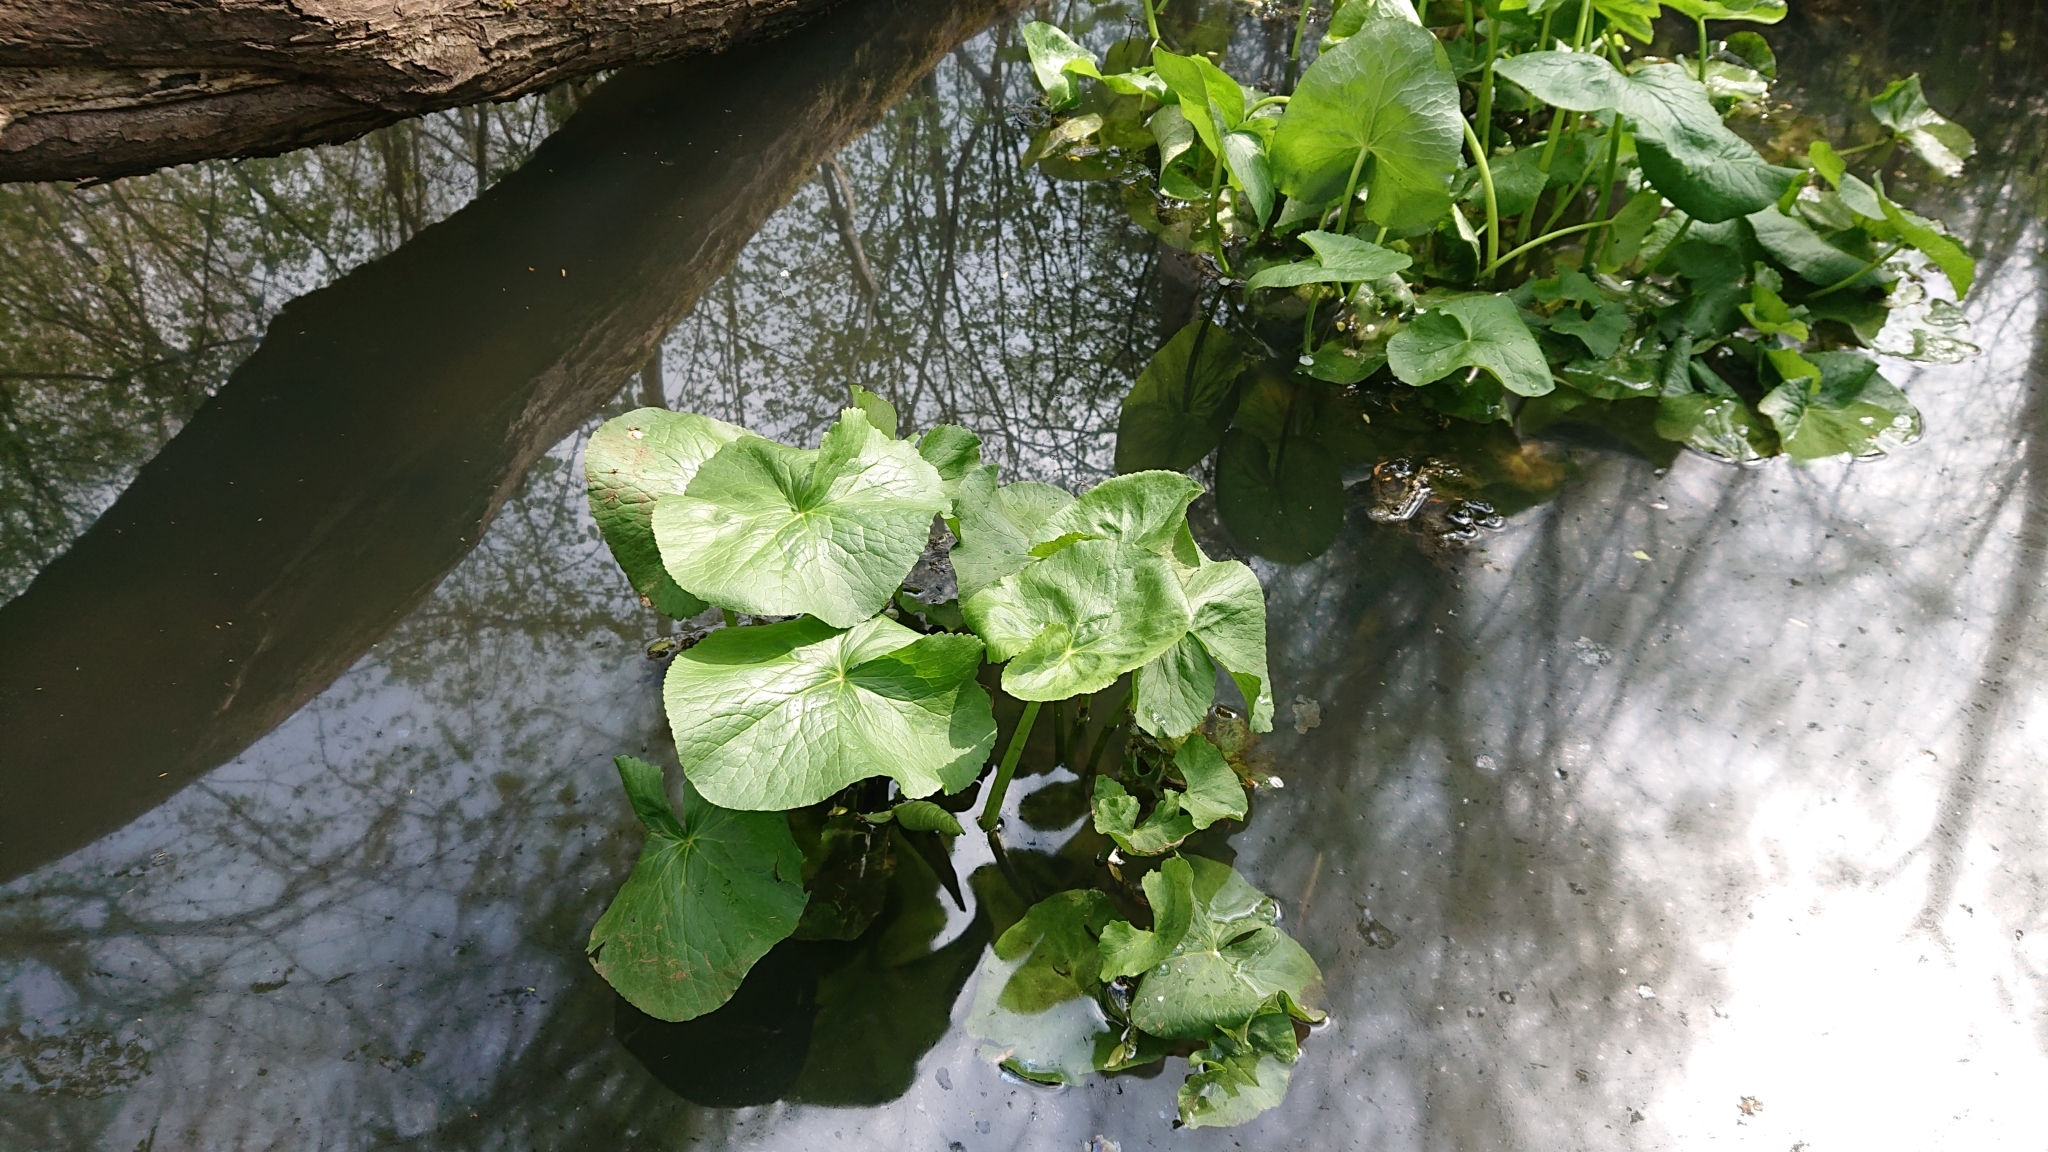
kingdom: Plantae
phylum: Tracheophyta
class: Magnoliopsida
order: Ranunculales
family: Ranunculaceae
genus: Caltha
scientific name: Caltha palustris
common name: Marsh marigold
